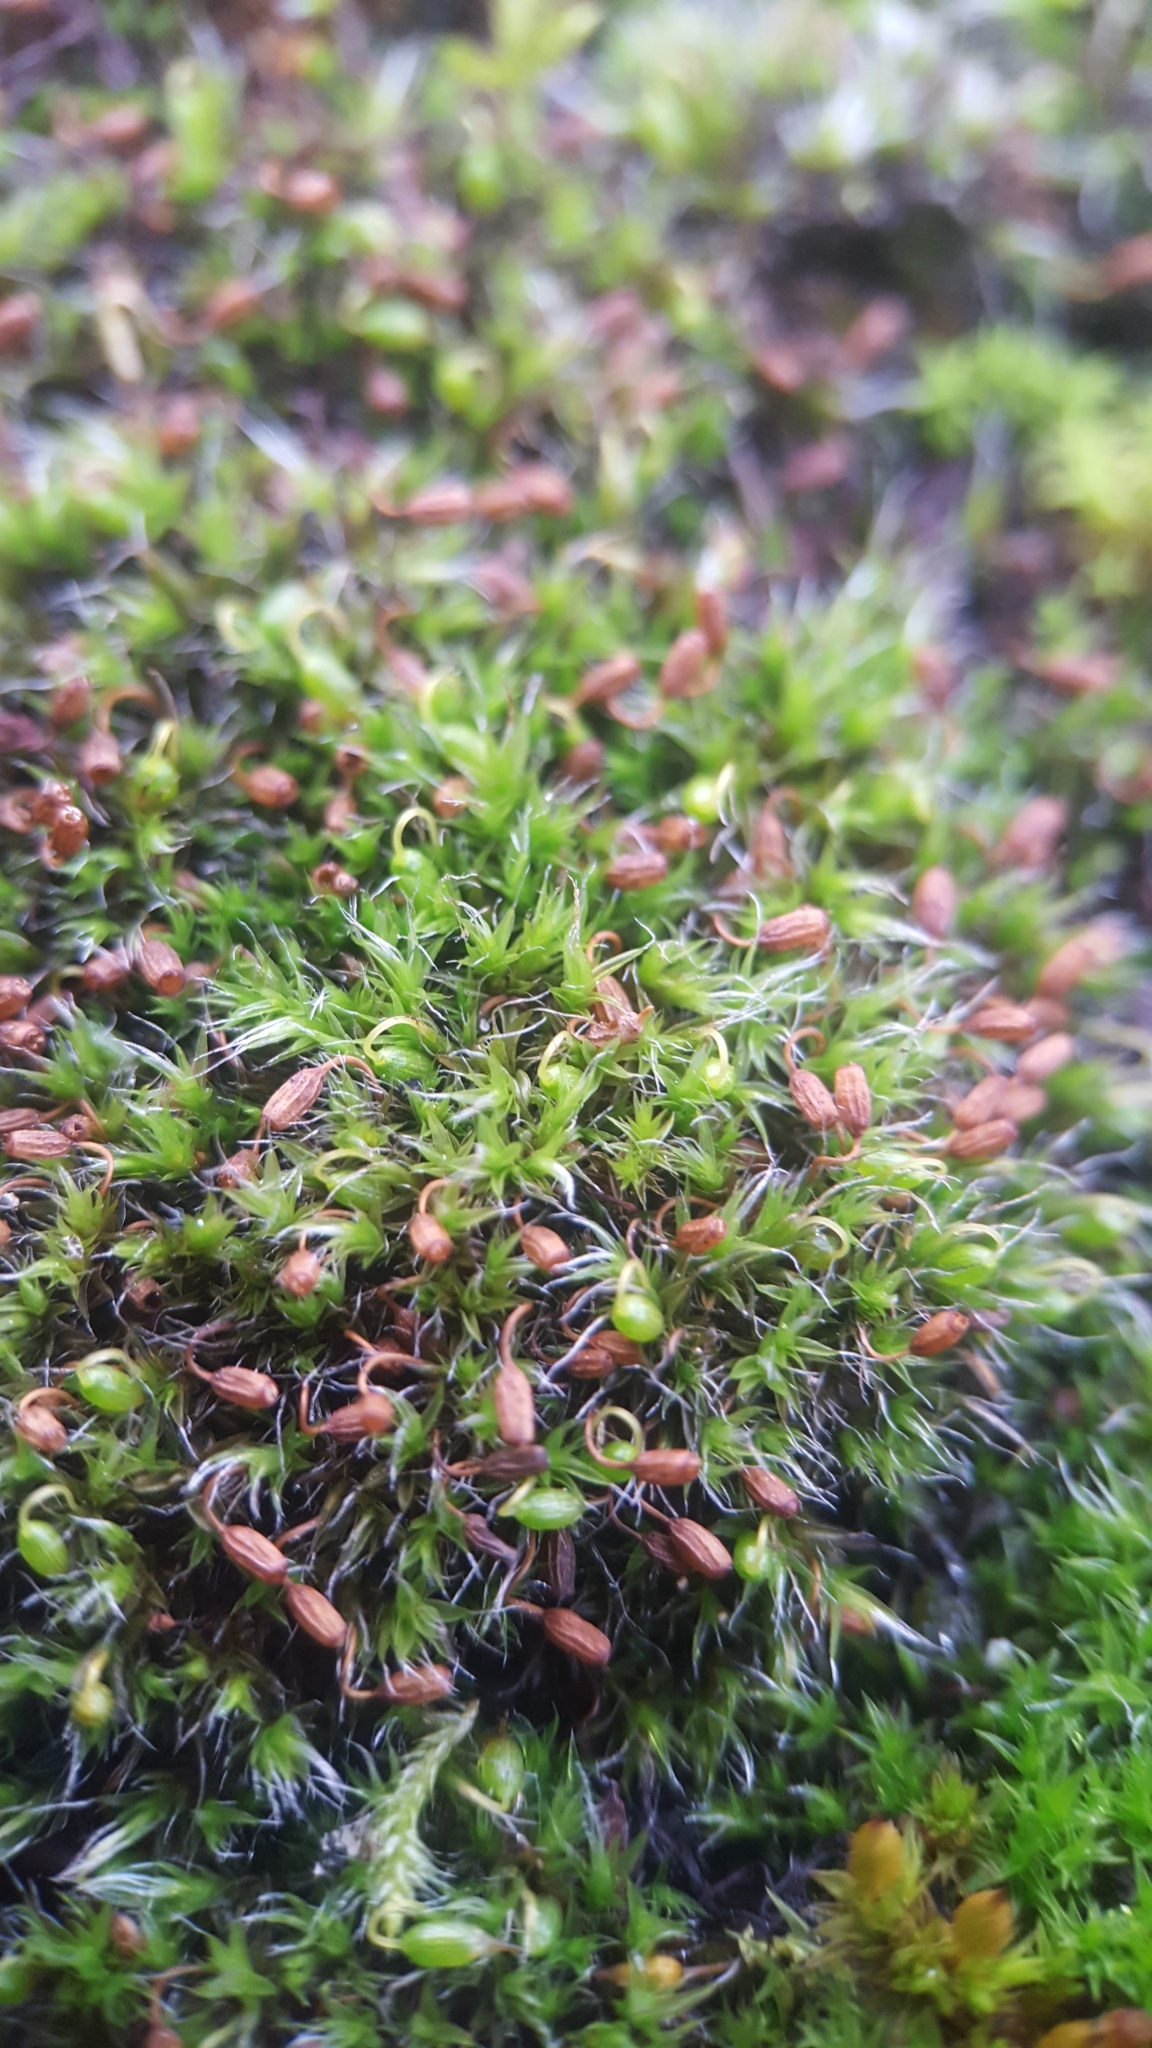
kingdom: Plantae
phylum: Bryophyta
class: Bryopsida
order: Grimmiales
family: Grimmiaceae
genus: Grimmia
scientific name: Grimmia pulvinata
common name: Grey-cushioned grimmia
